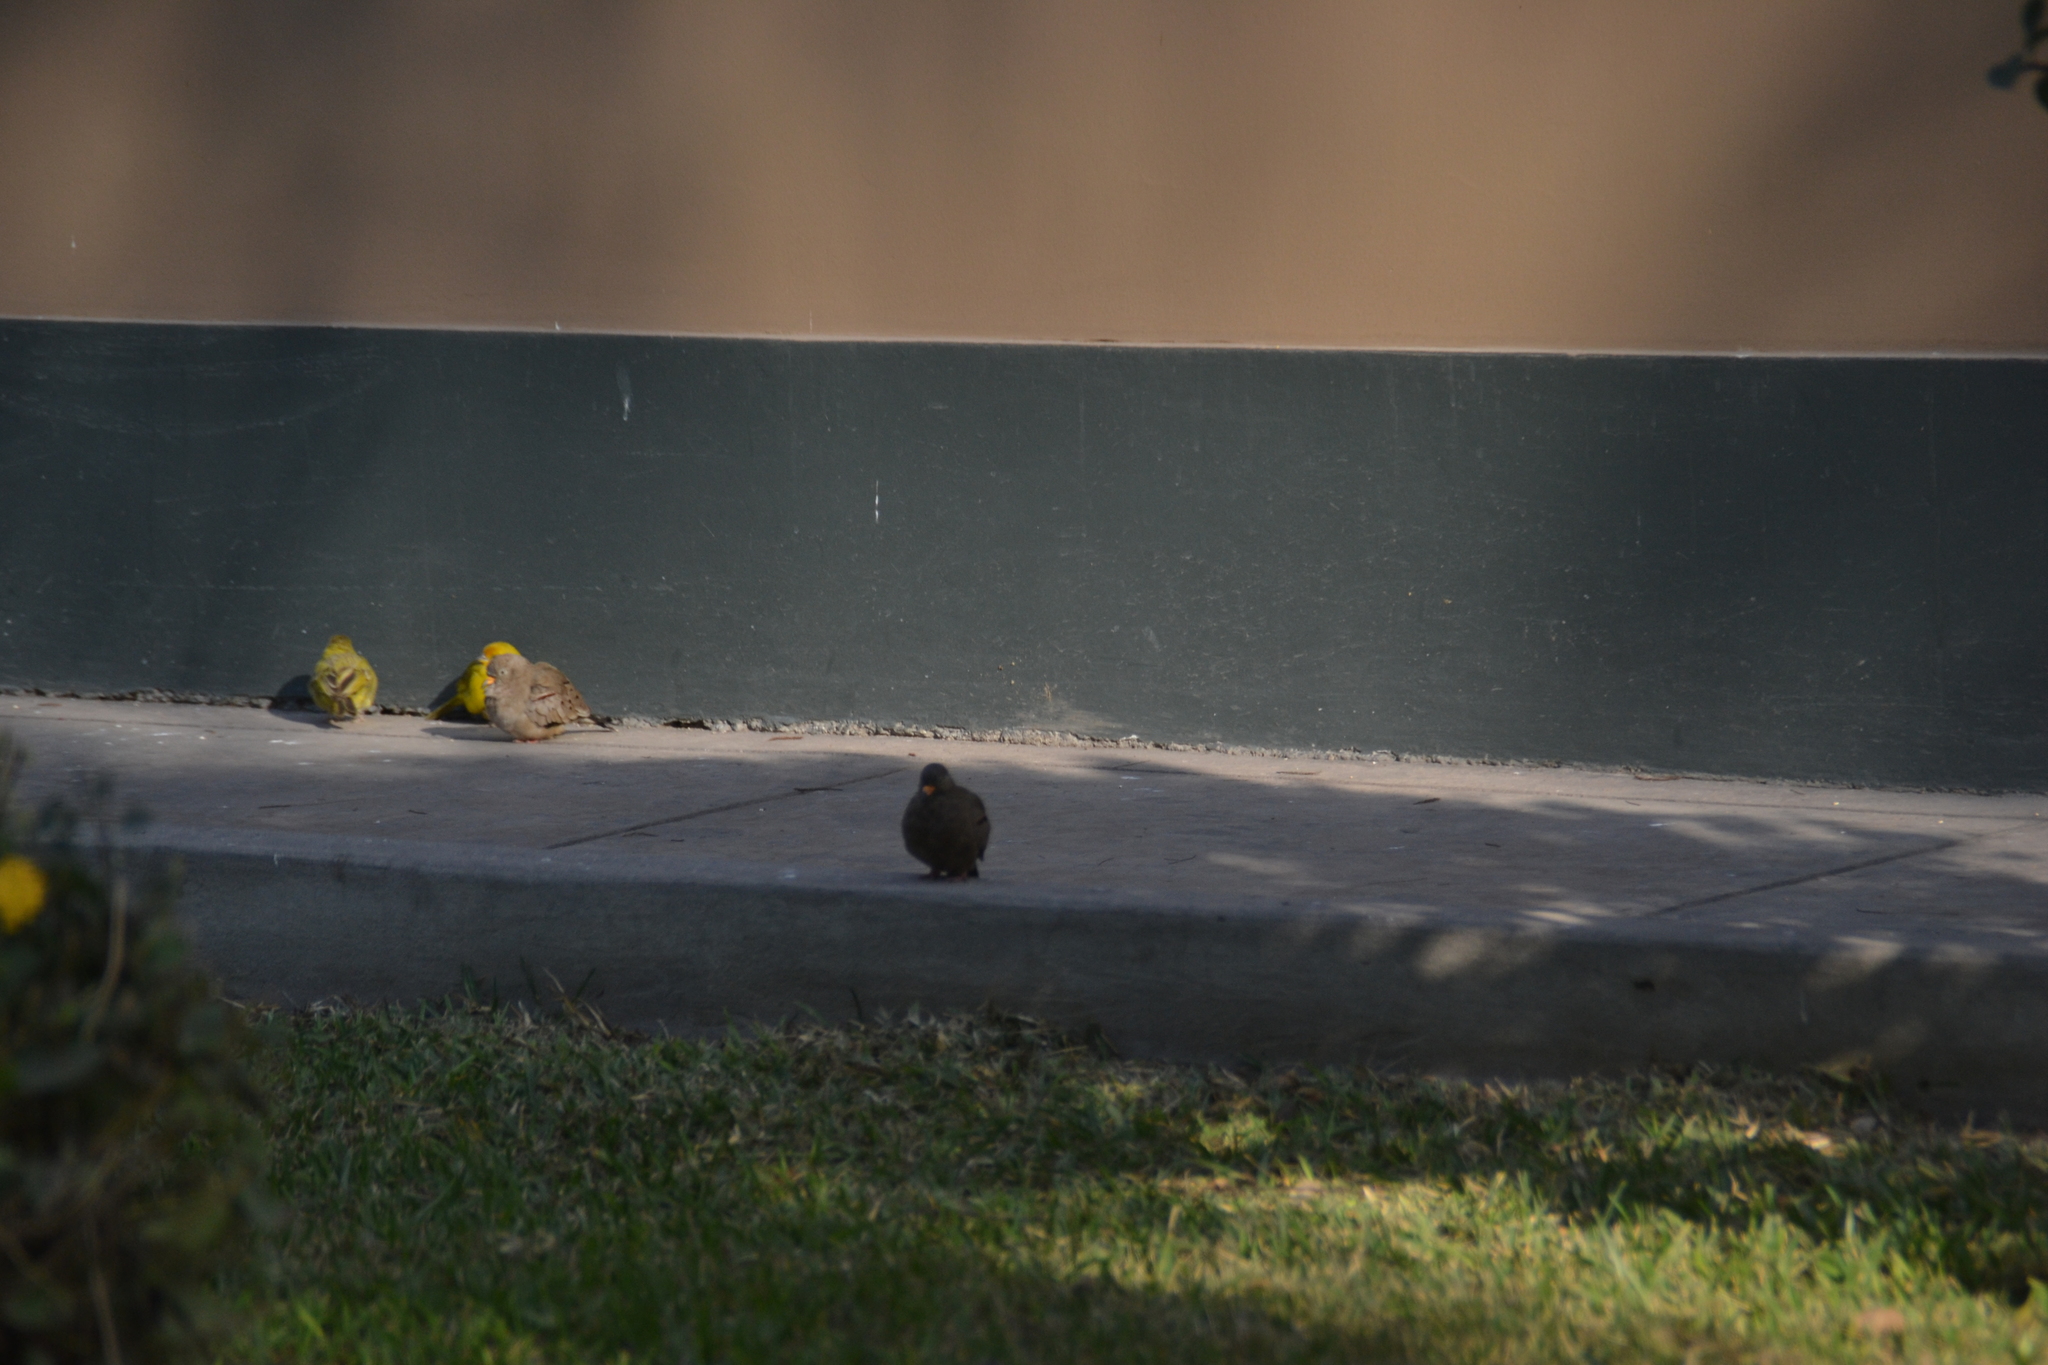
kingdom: Animalia
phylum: Chordata
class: Aves
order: Passeriformes
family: Thraupidae
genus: Sicalis
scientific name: Sicalis flaveola
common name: Saffron finch
